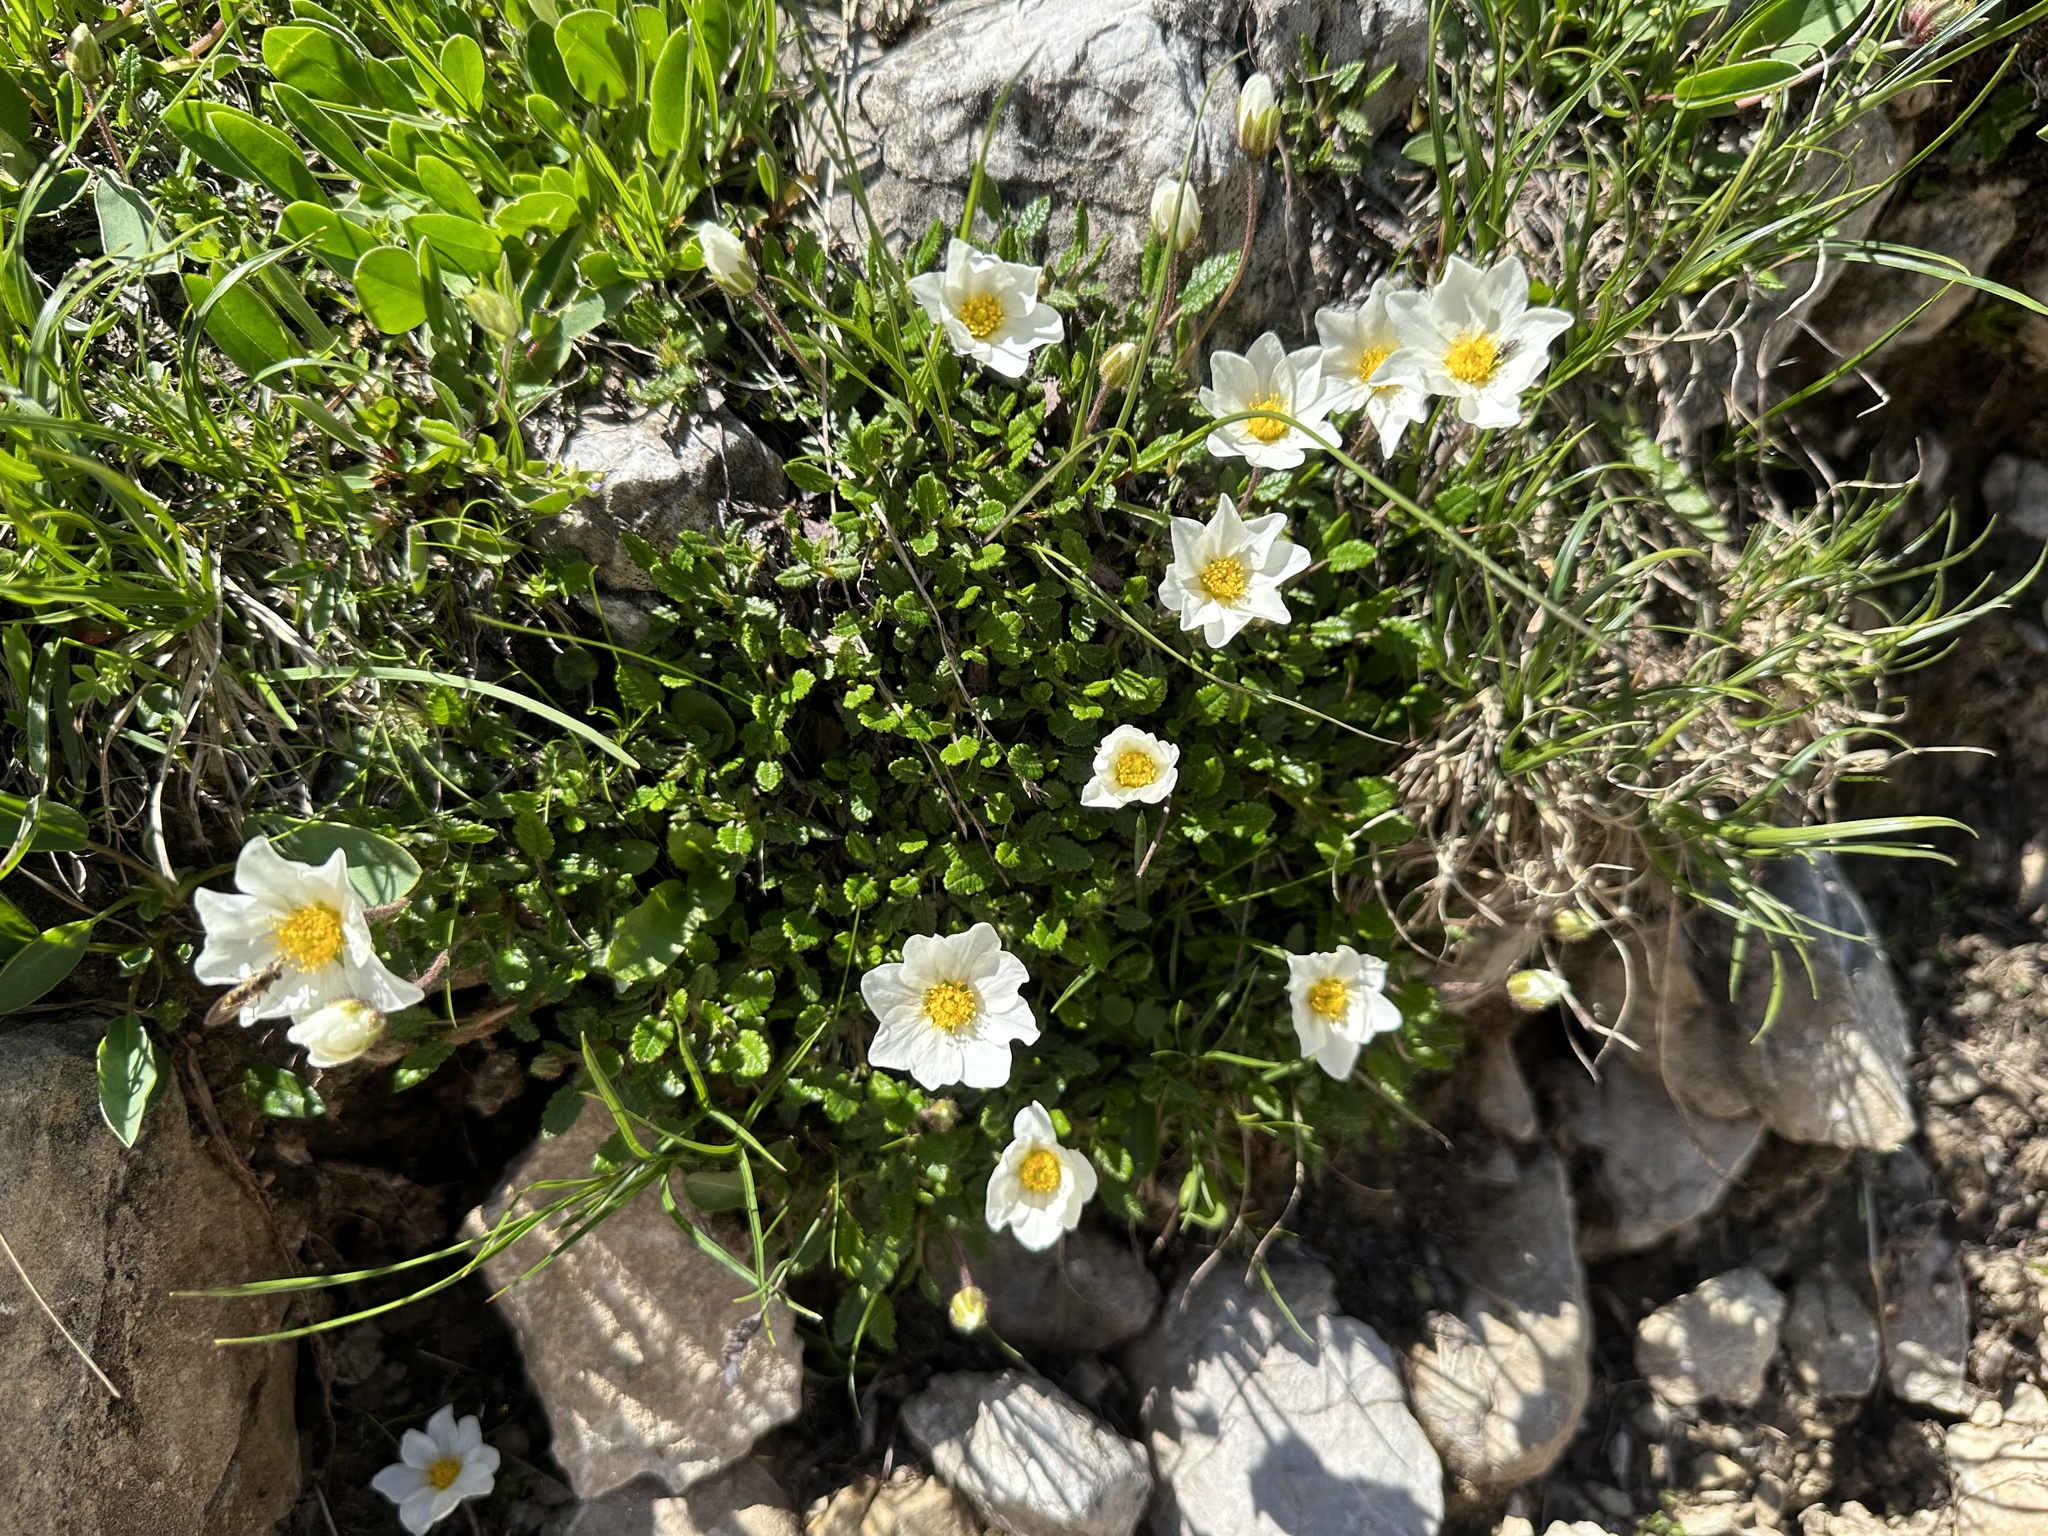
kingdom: Plantae
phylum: Tracheophyta
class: Magnoliopsida
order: Rosales
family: Rosaceae
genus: Dryas
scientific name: Dryas octopetala
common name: Eight-petal mountain-avens
